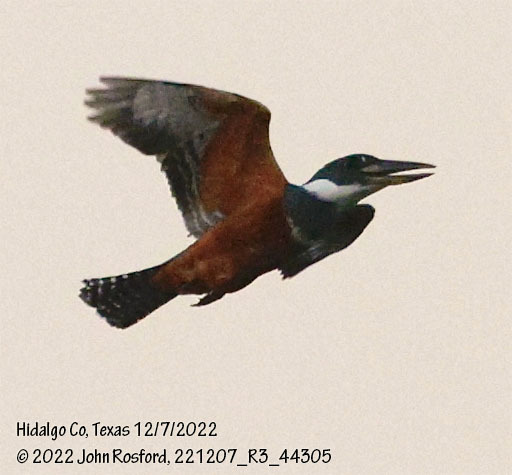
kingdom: Animalia
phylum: Chordata
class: Aves
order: Coraciiformes
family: Alcedinidae
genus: Megaceryle
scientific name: Megaceryle torquata
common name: Ringed kingfisher
